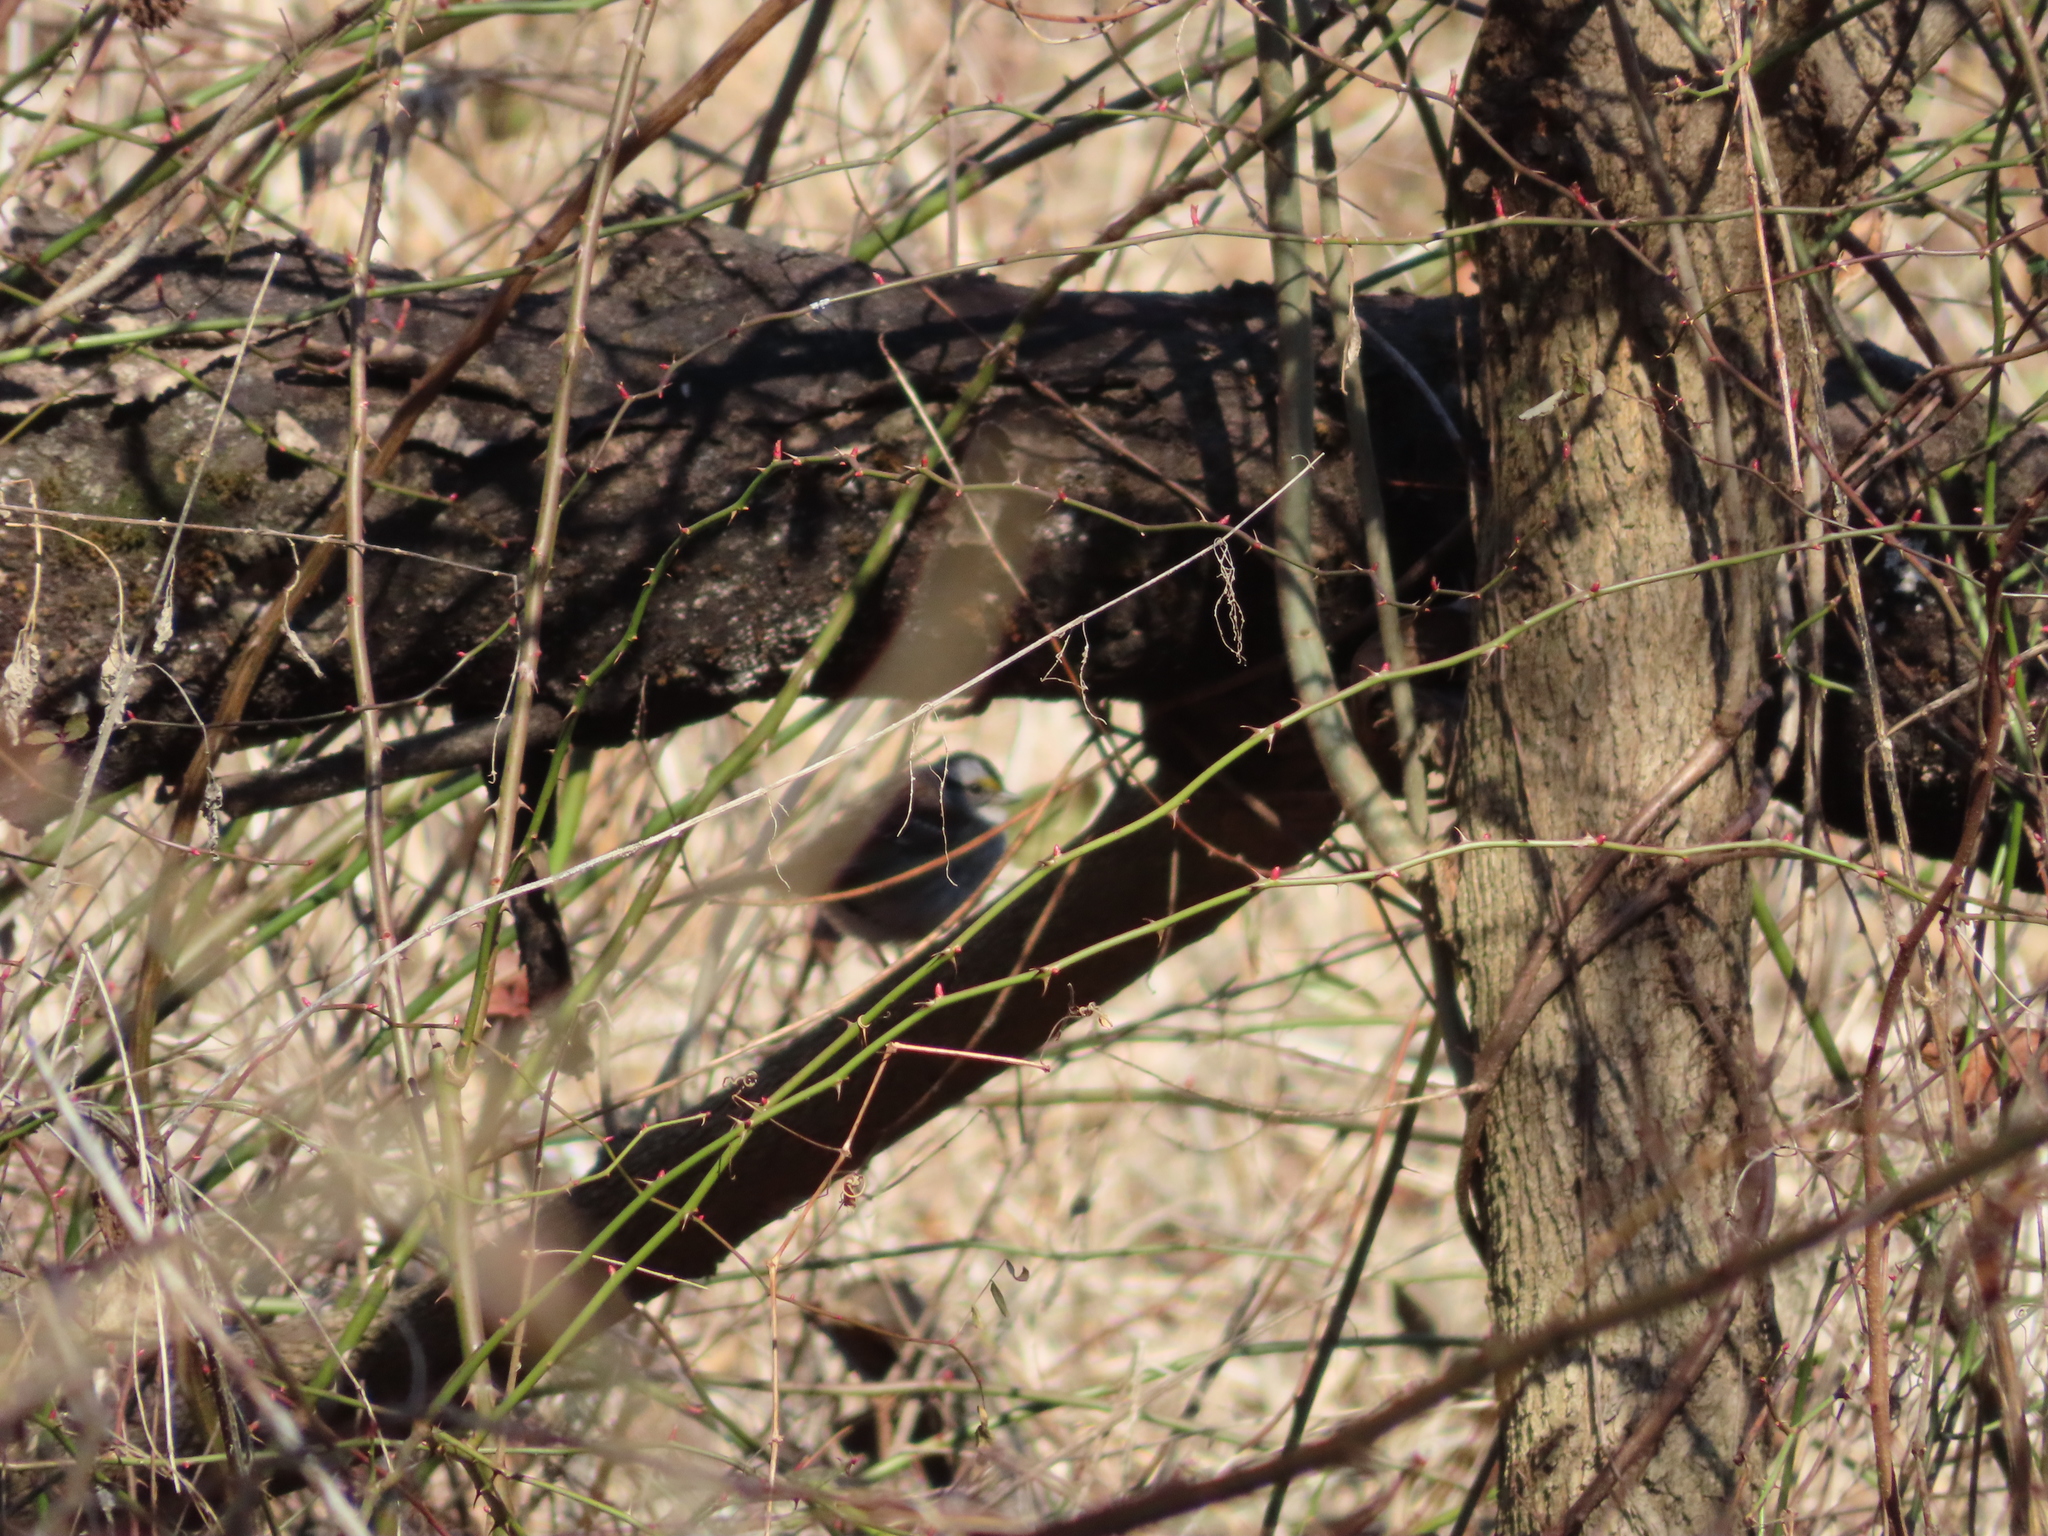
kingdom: Animalia
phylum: Chordata
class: Aves
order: Passeriformes
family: Passerellidae
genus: Zonotrichia
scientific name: Zonotrichia albicollis
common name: White-throated sparrow
